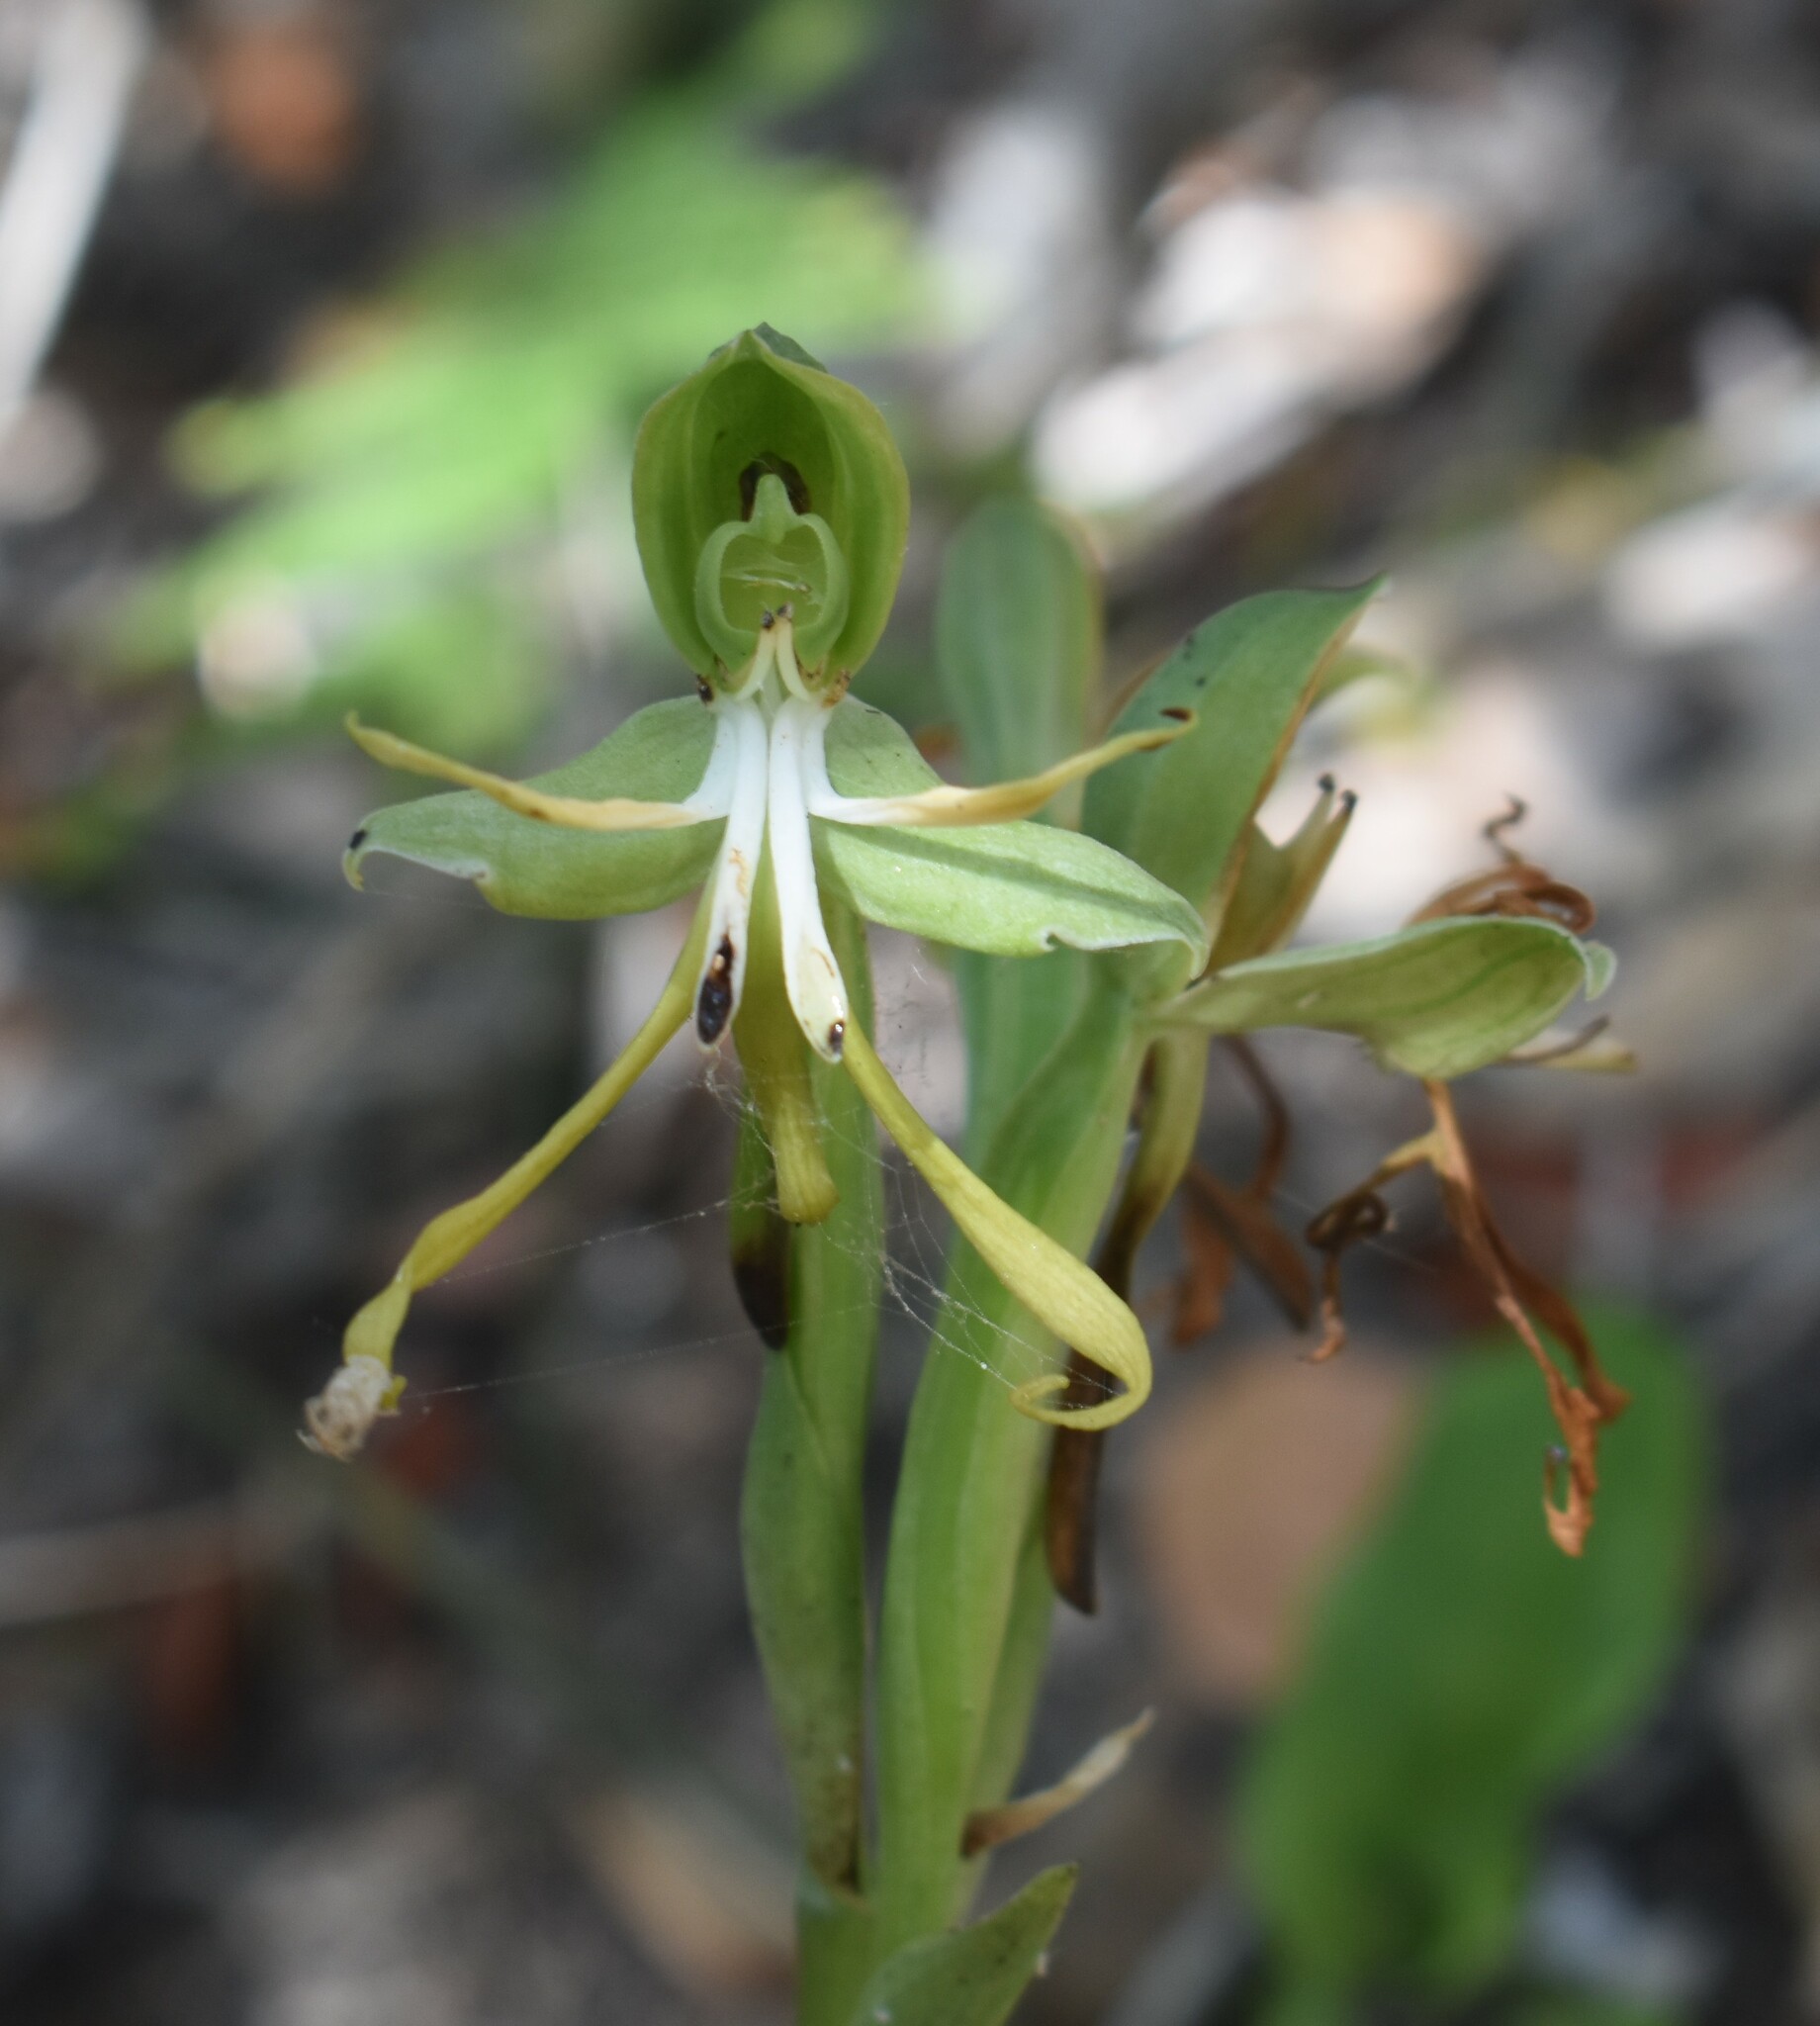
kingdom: Plantae
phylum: Tracheophyta
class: Liliopsida
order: Asparagales
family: Orchidaceae
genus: Bonatea
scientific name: Bonatea speciosa
